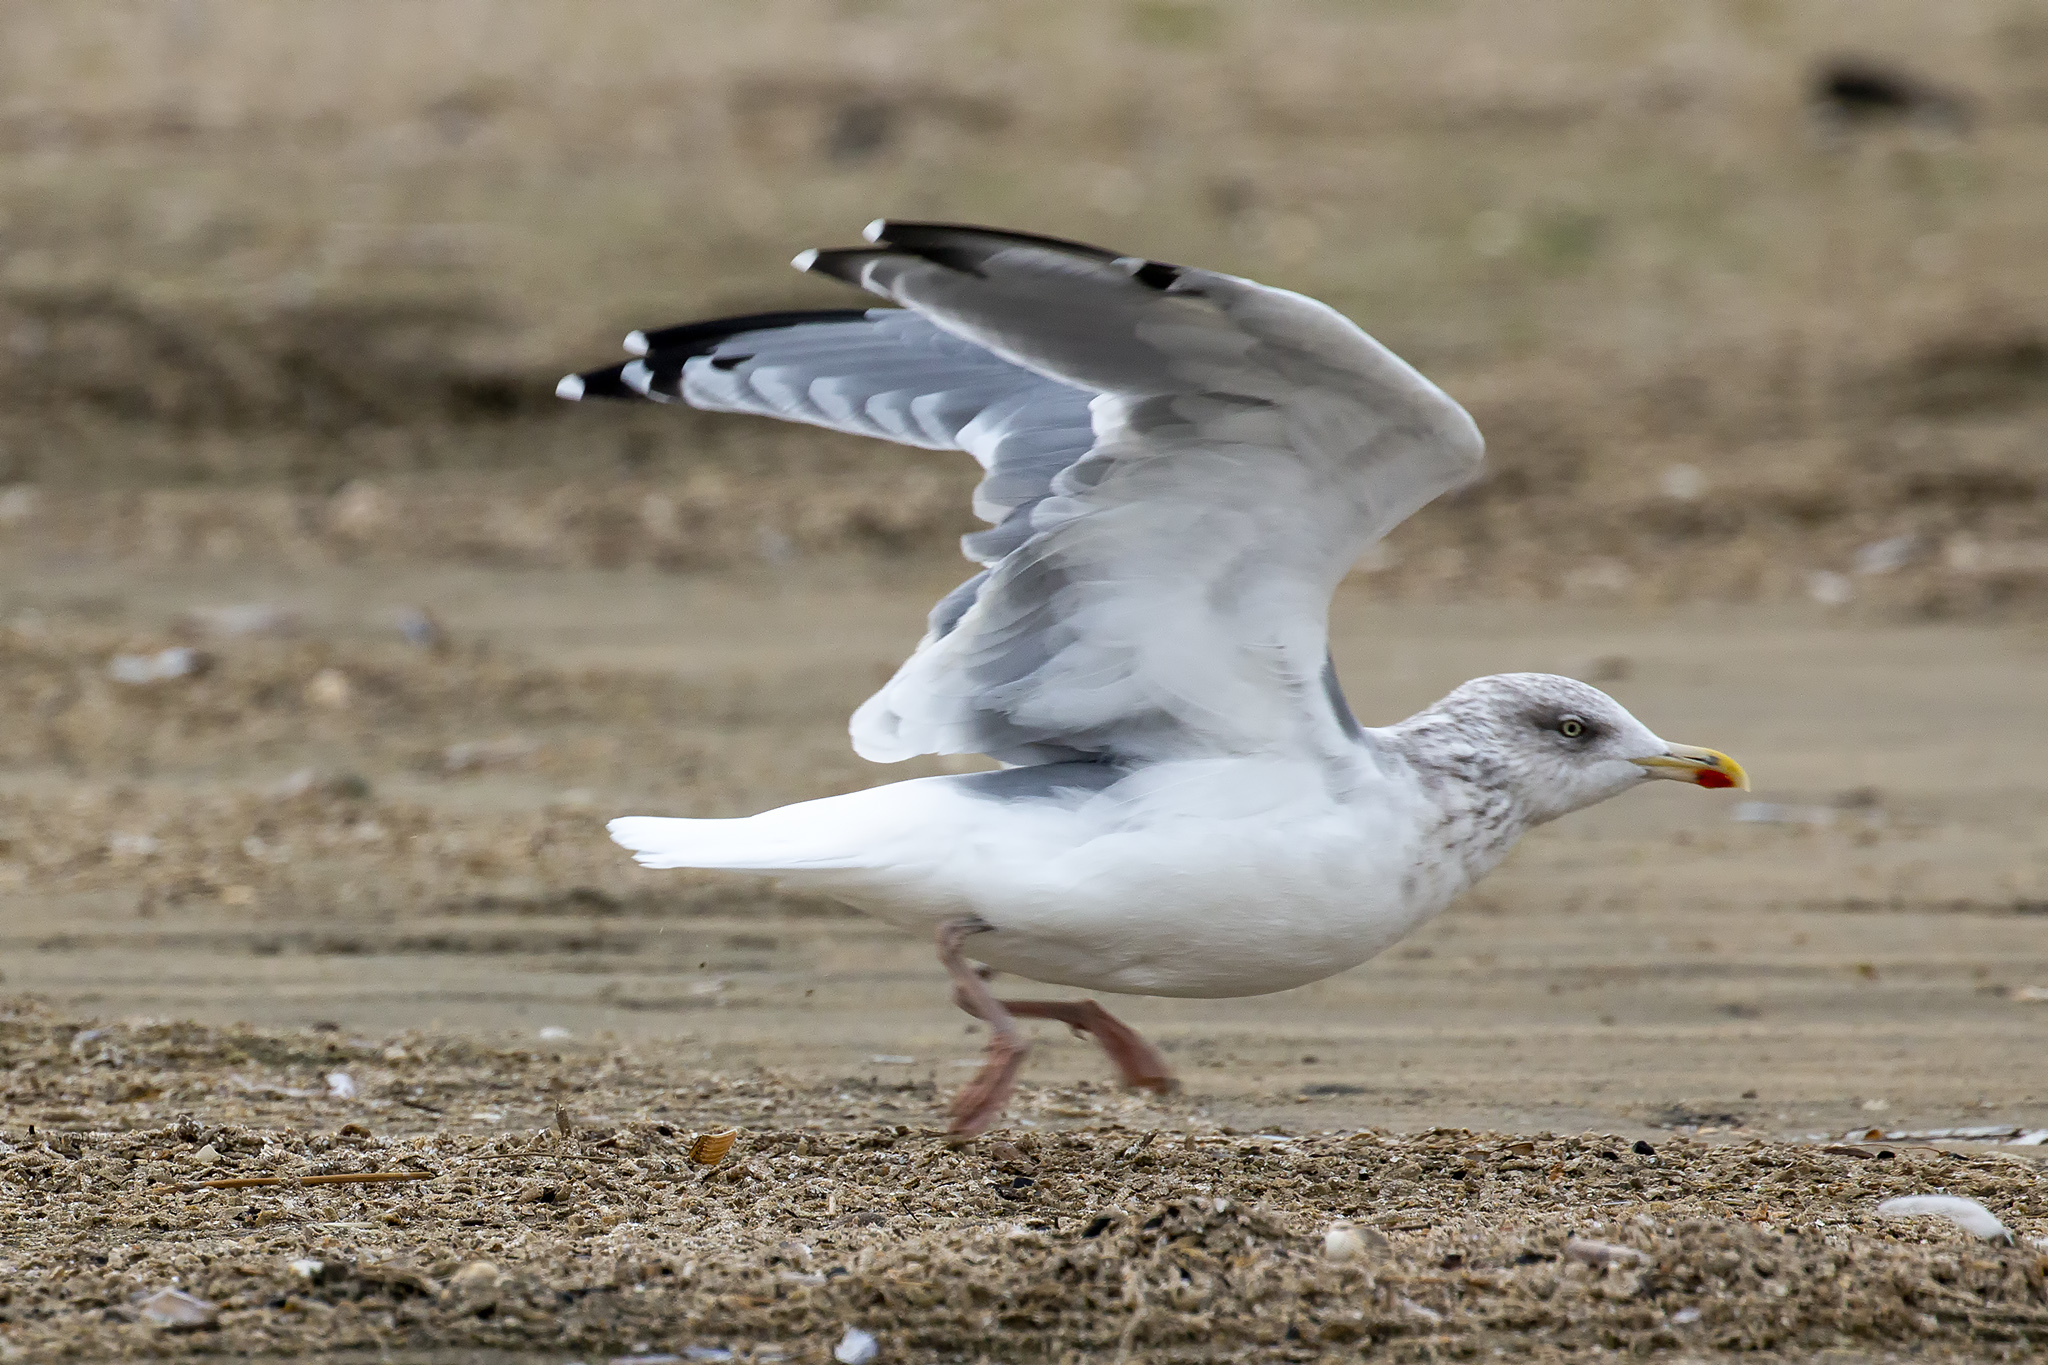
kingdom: Animalia
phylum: Chordata
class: Aves
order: Charadriiformes
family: Laridae
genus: Larus
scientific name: Larus argentatus
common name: Herring gull
